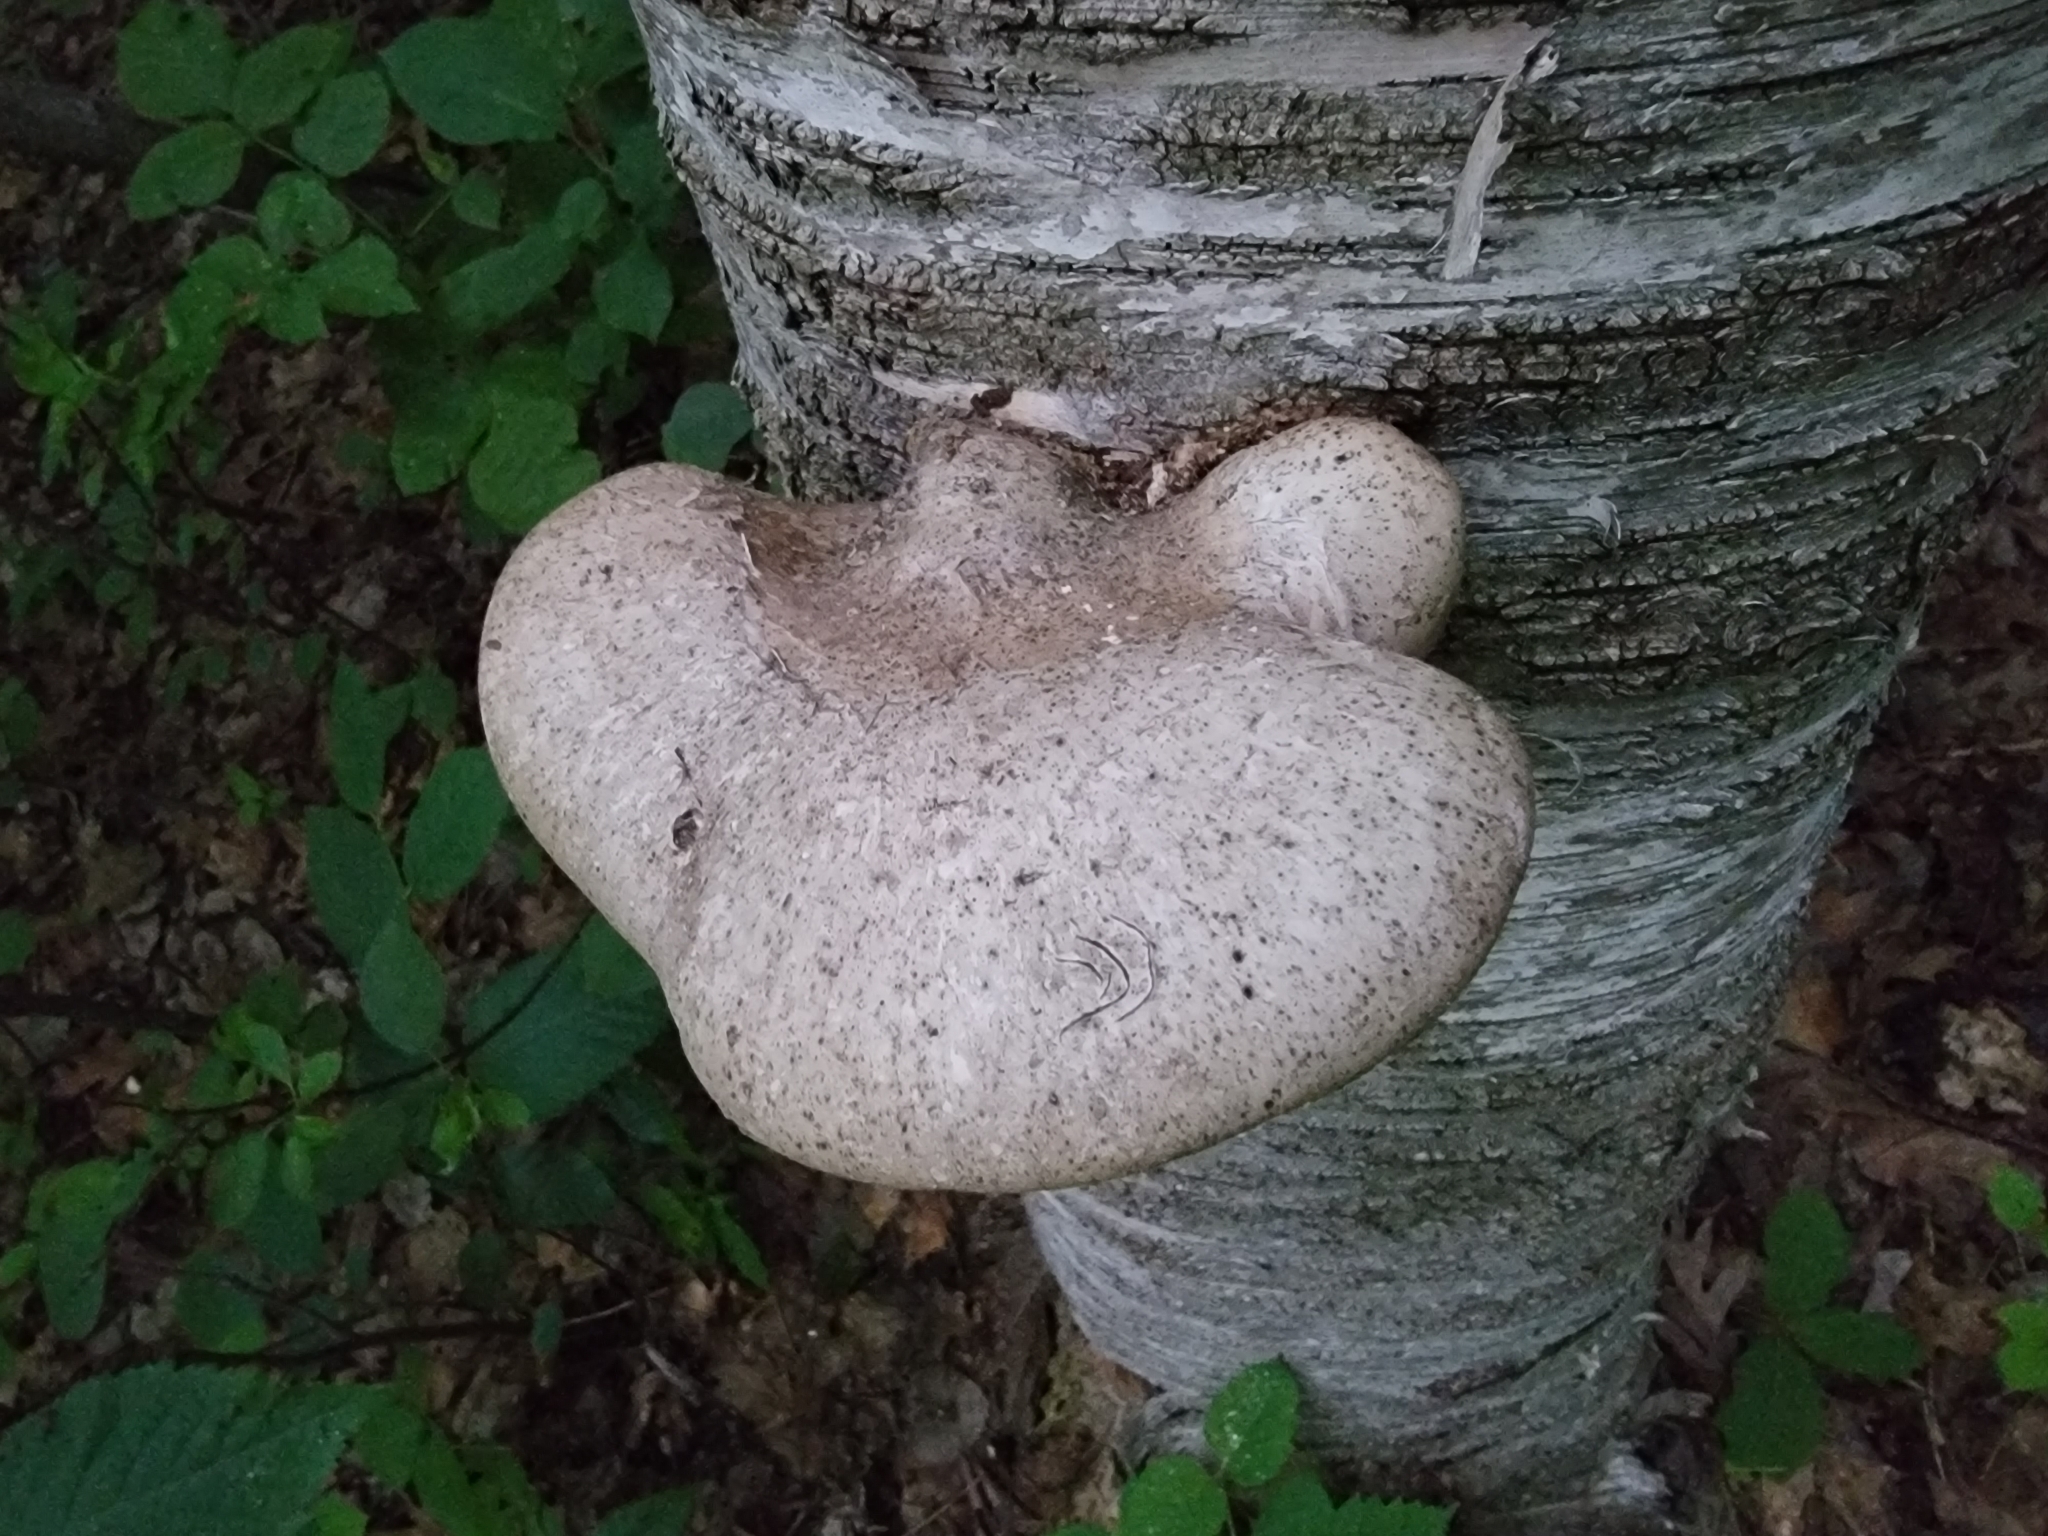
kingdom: Fungi
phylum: Basidiomycota
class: Agaricomycetes
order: Polyporales
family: Fomitopsidaceae
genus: Fomitopsis
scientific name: Fomitopsis betulina
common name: Birch polypore
